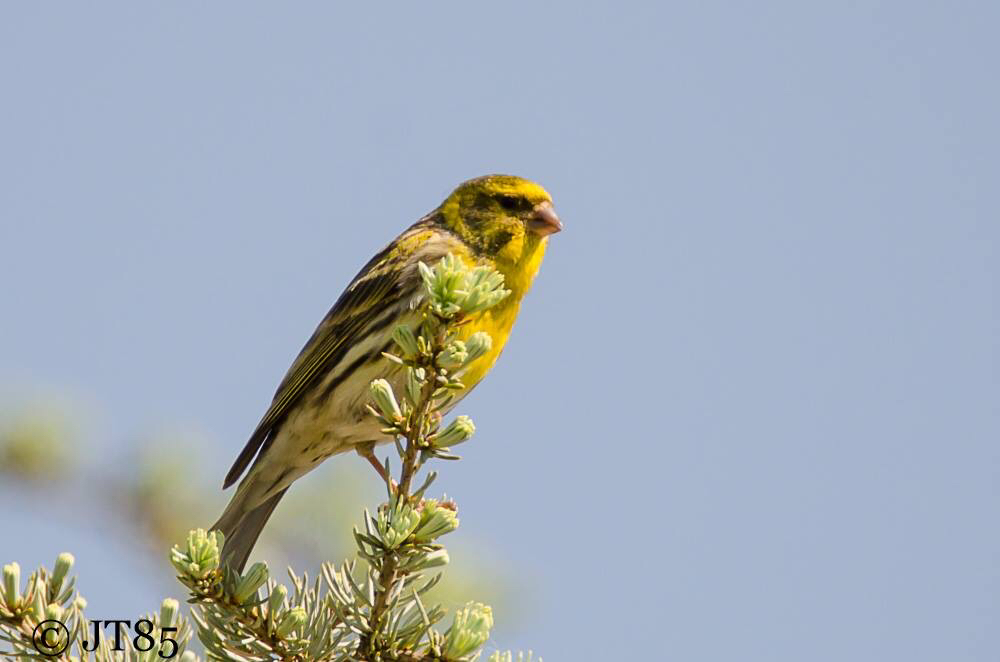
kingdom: Animalia
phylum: Chordata
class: Aves
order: Passeriformes
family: Fringillidae
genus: Serinus
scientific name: Serinus serinus
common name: European serin
